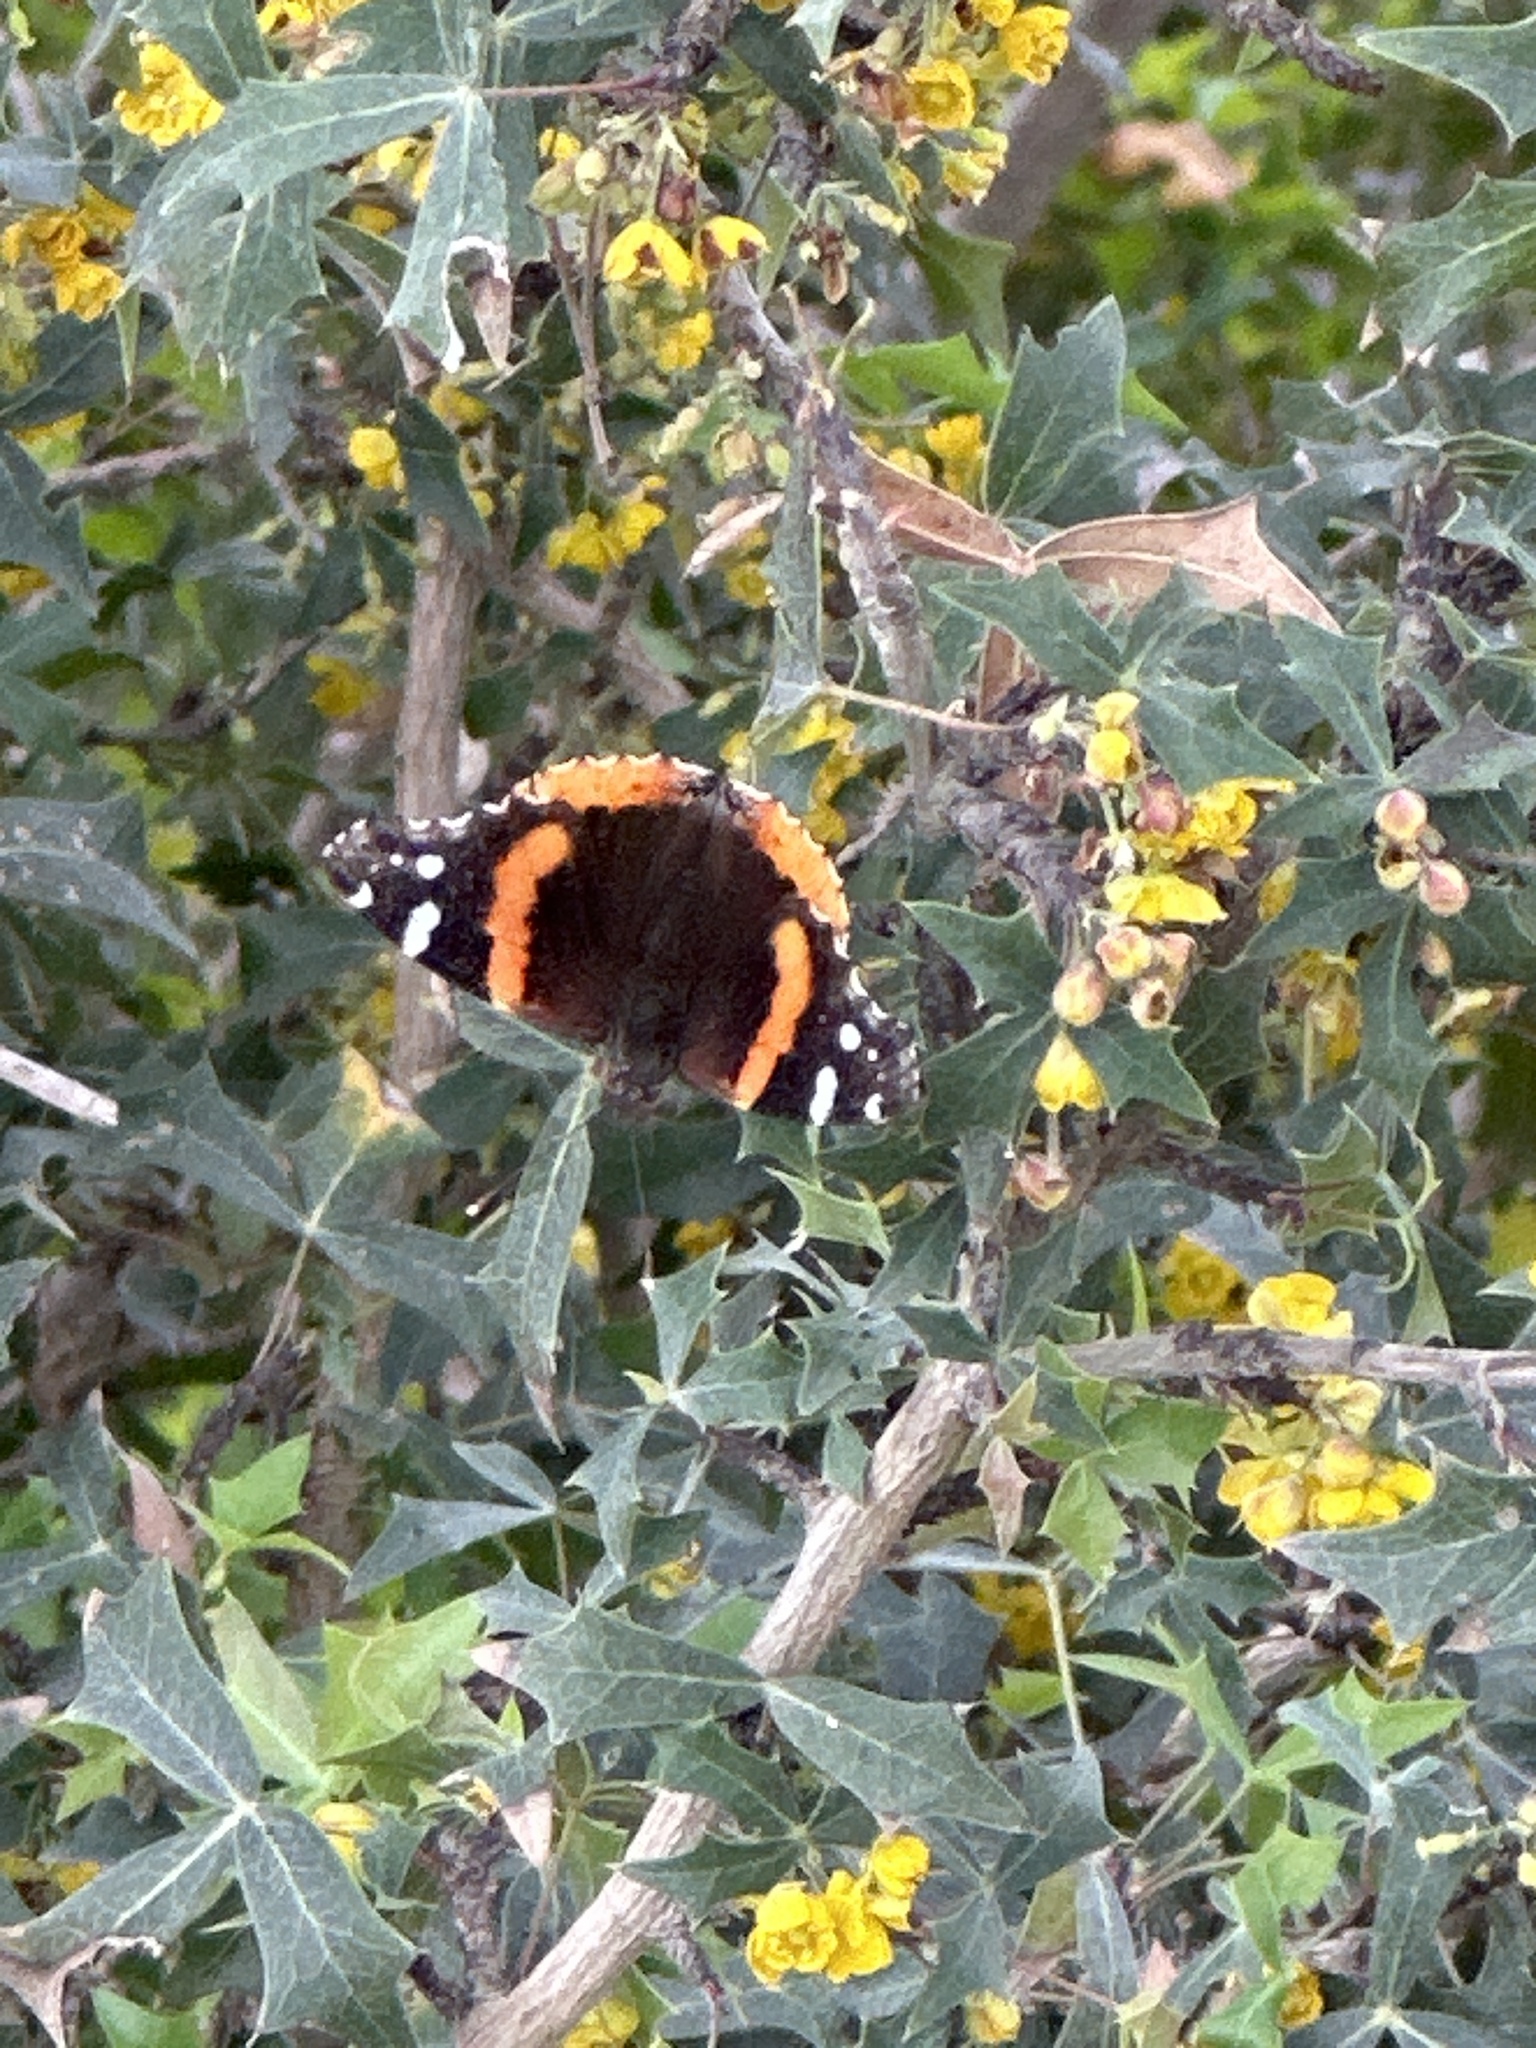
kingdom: Animalia
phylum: Arthropoda
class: Insecta
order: Lepidoptera
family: Nymphalidae
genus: Vanessa
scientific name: Vanessa atalanta
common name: Red admiral
